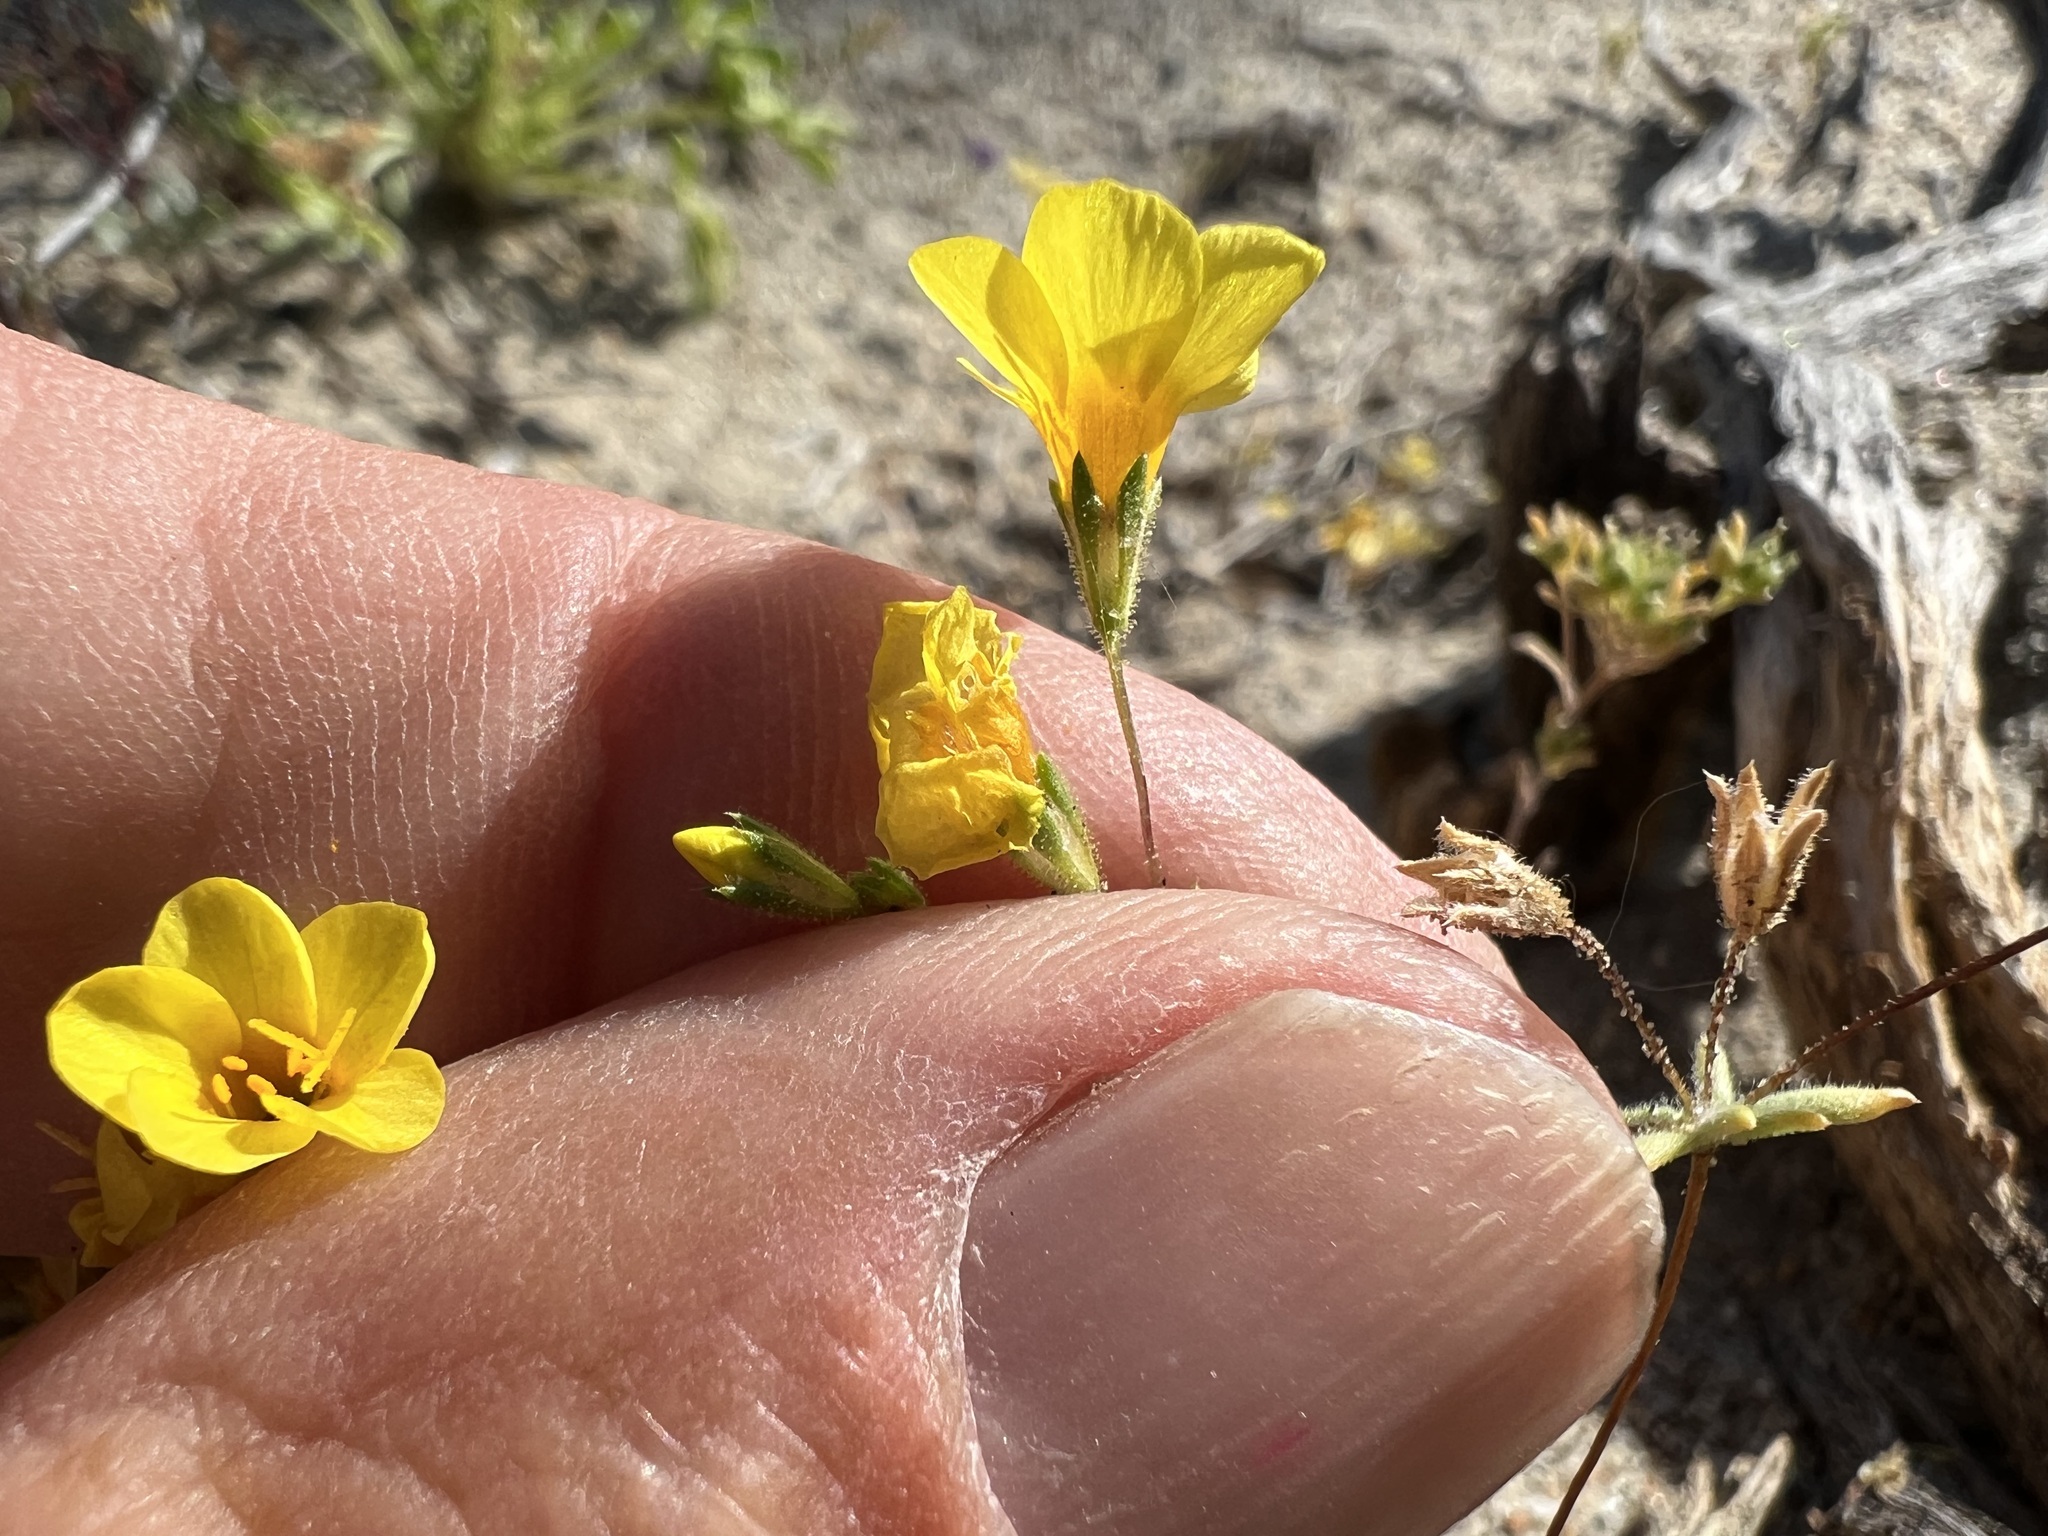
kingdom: Plantae
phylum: Tracheophyta
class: Magnoliopsida
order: Ericales
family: Polemoniaceae
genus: Leptosiphon
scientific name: Leptosiphon chrysanthus
